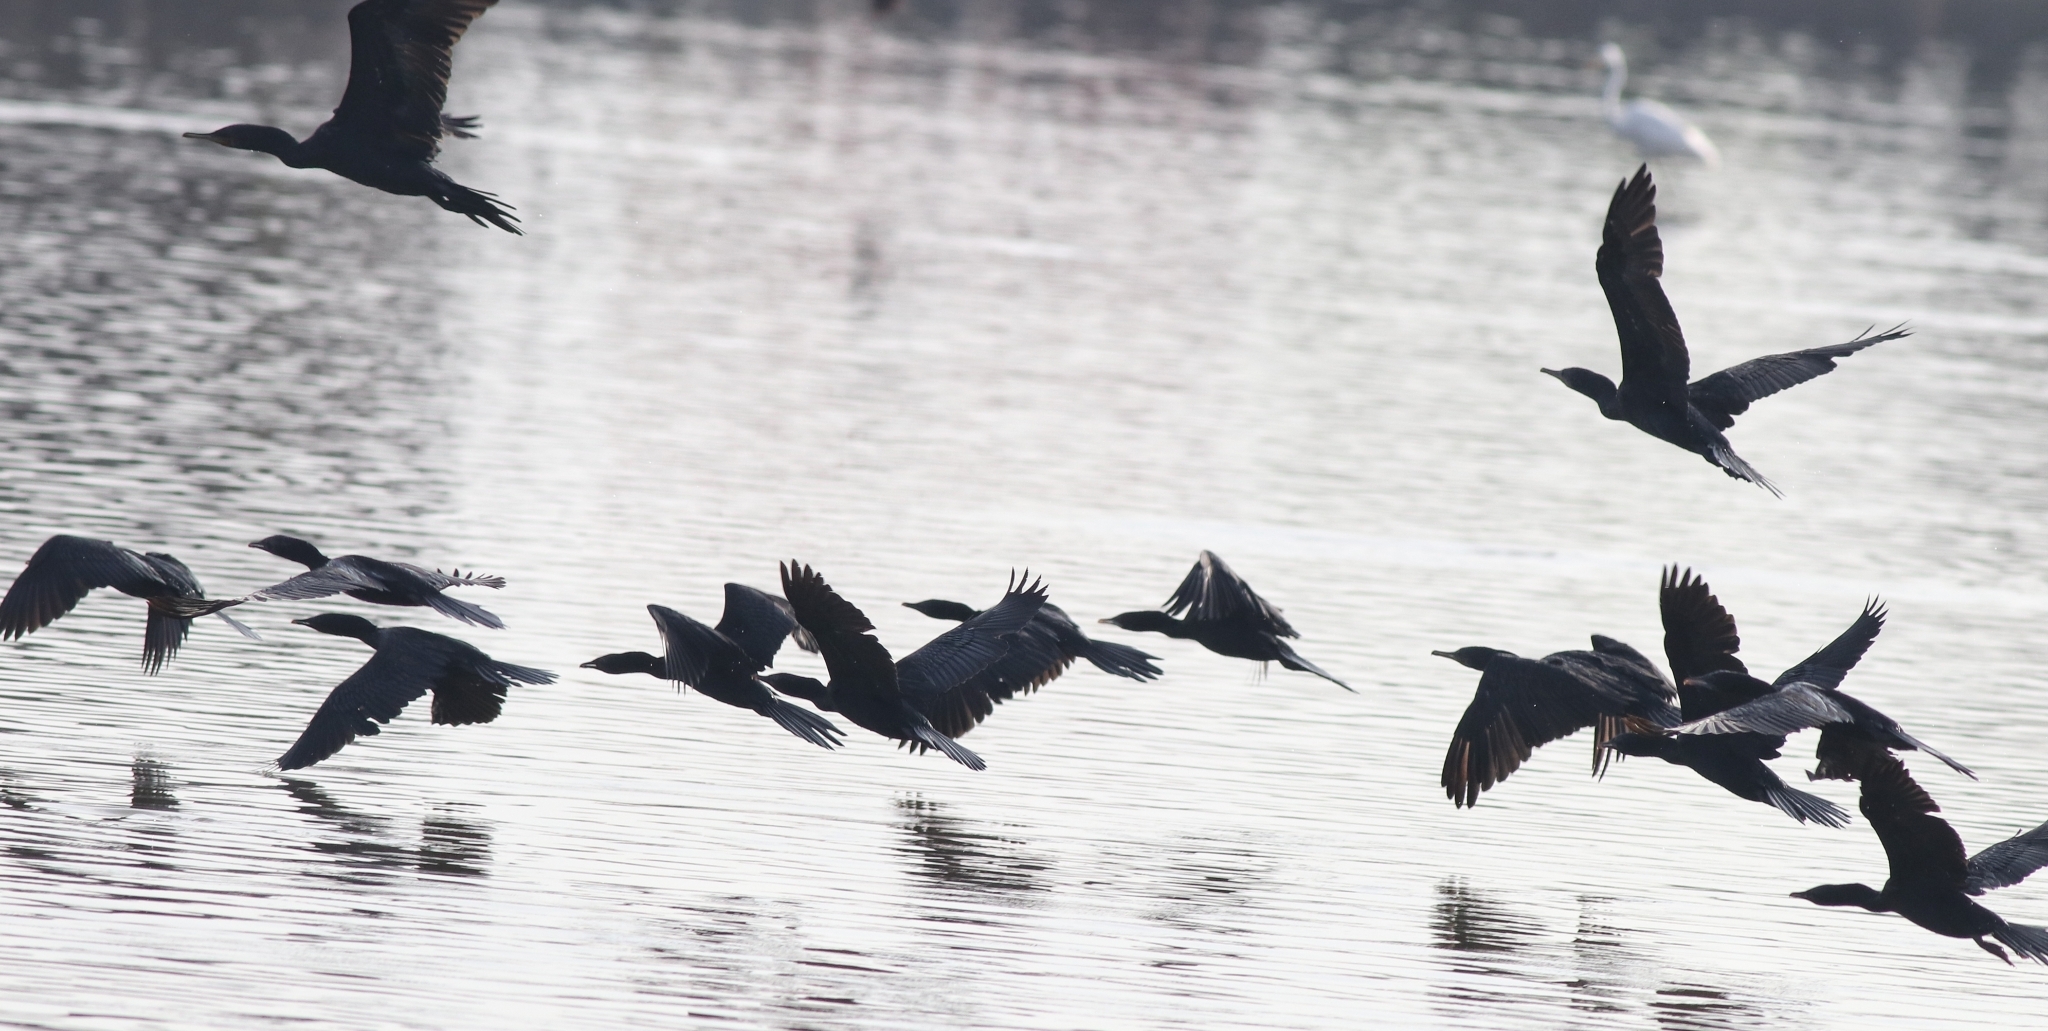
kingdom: Animalia
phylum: Chordata
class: Aves
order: Suliformes
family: Phalacrocoracidae
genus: Phalacrocorax
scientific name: Phalacrocorax fuscicollis
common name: Indian cormorant
